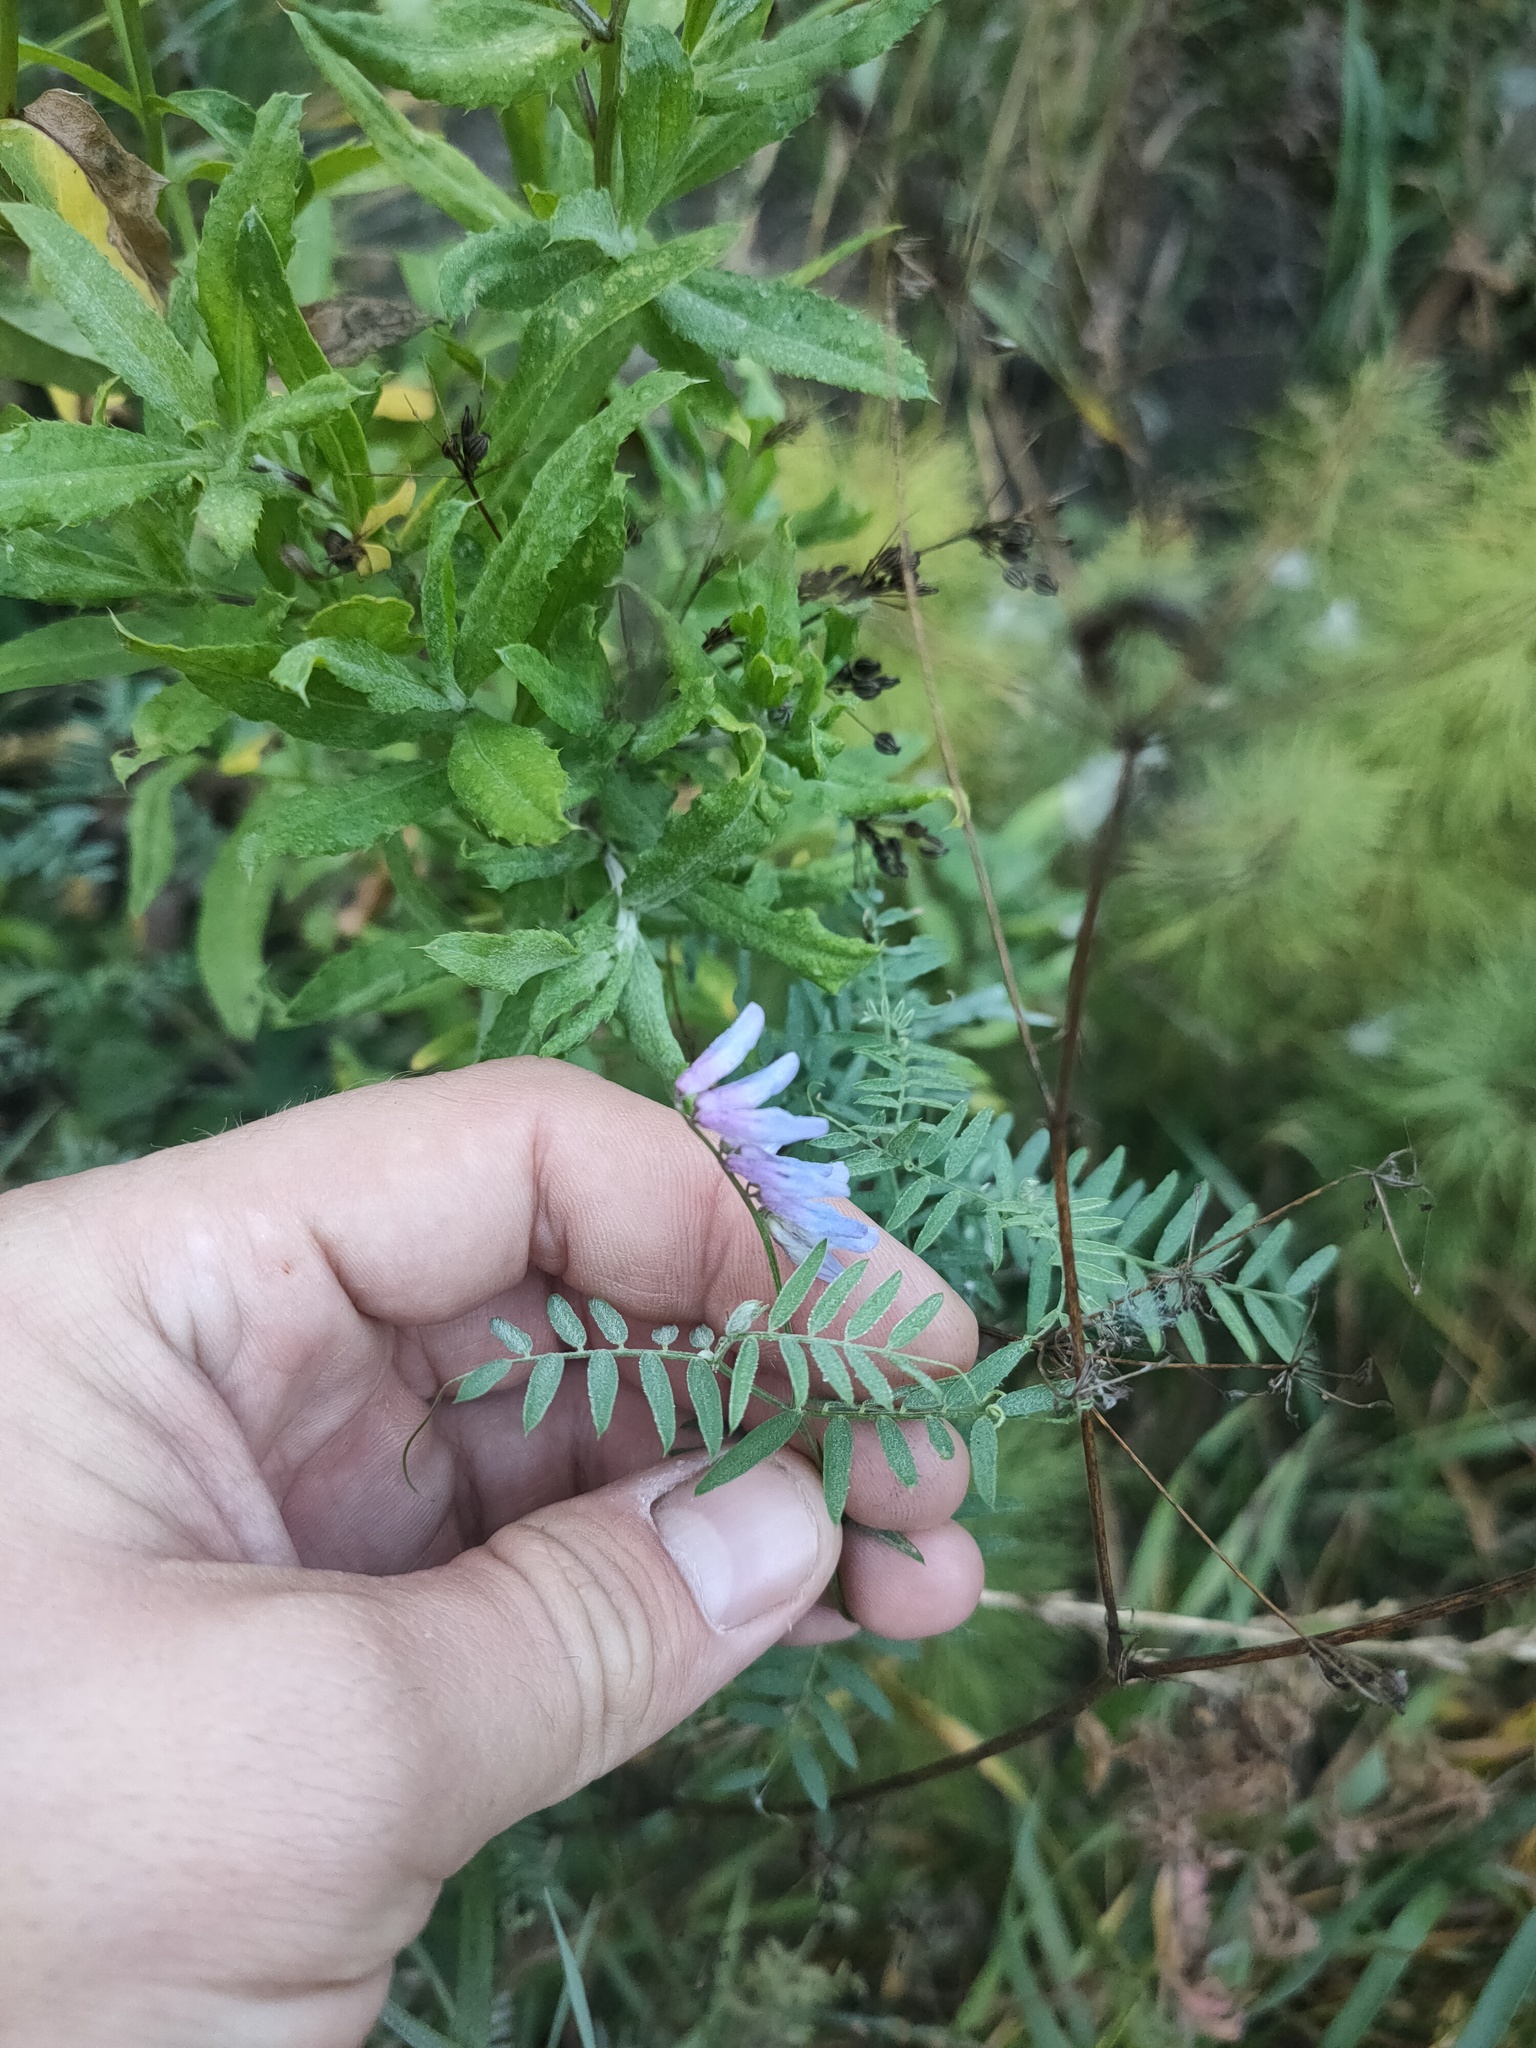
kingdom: Plantae
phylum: Tracheophyta
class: Magnoliopsida
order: Fabales
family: Fabaceae
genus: Vicia
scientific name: Vicia cracca
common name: Bird vetch
